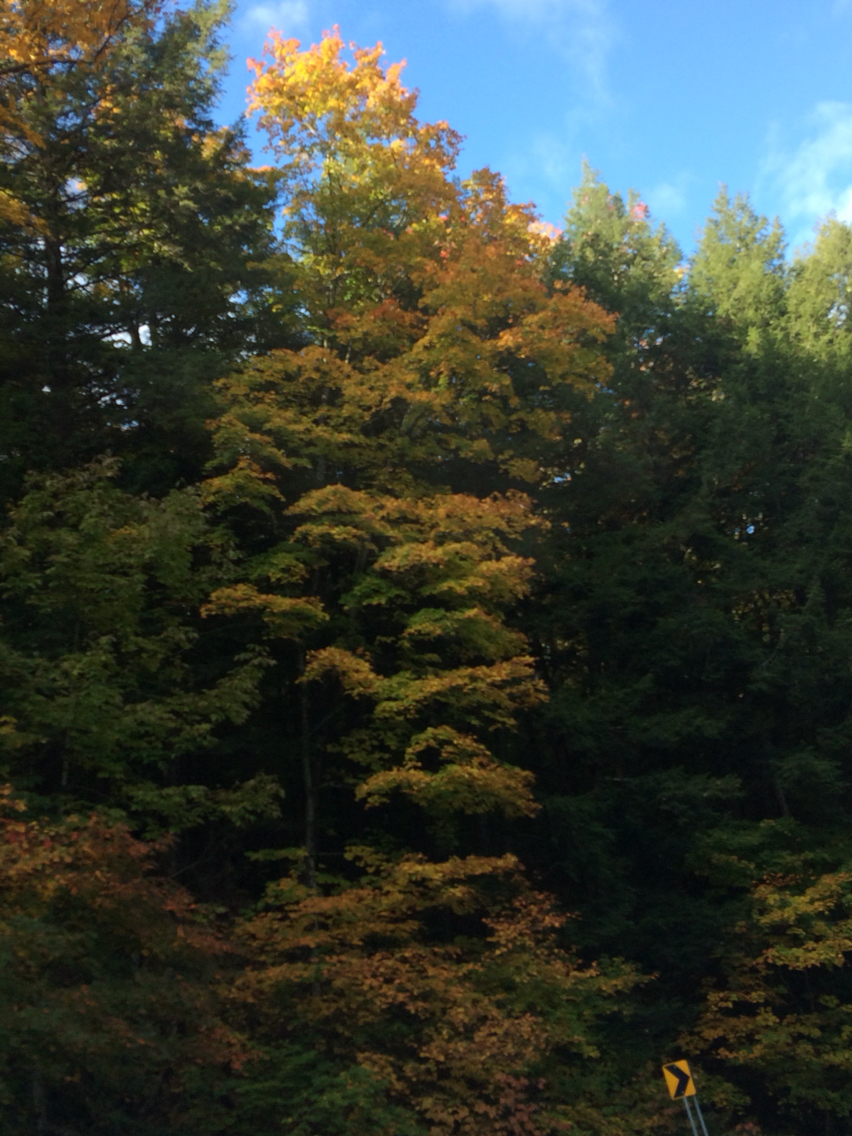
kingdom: Plantae
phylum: Tracheophyta
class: Magnoliopsida
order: Sapindales
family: Sapindaceae
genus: Acer
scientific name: Acer saccharum
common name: Sugar maple
